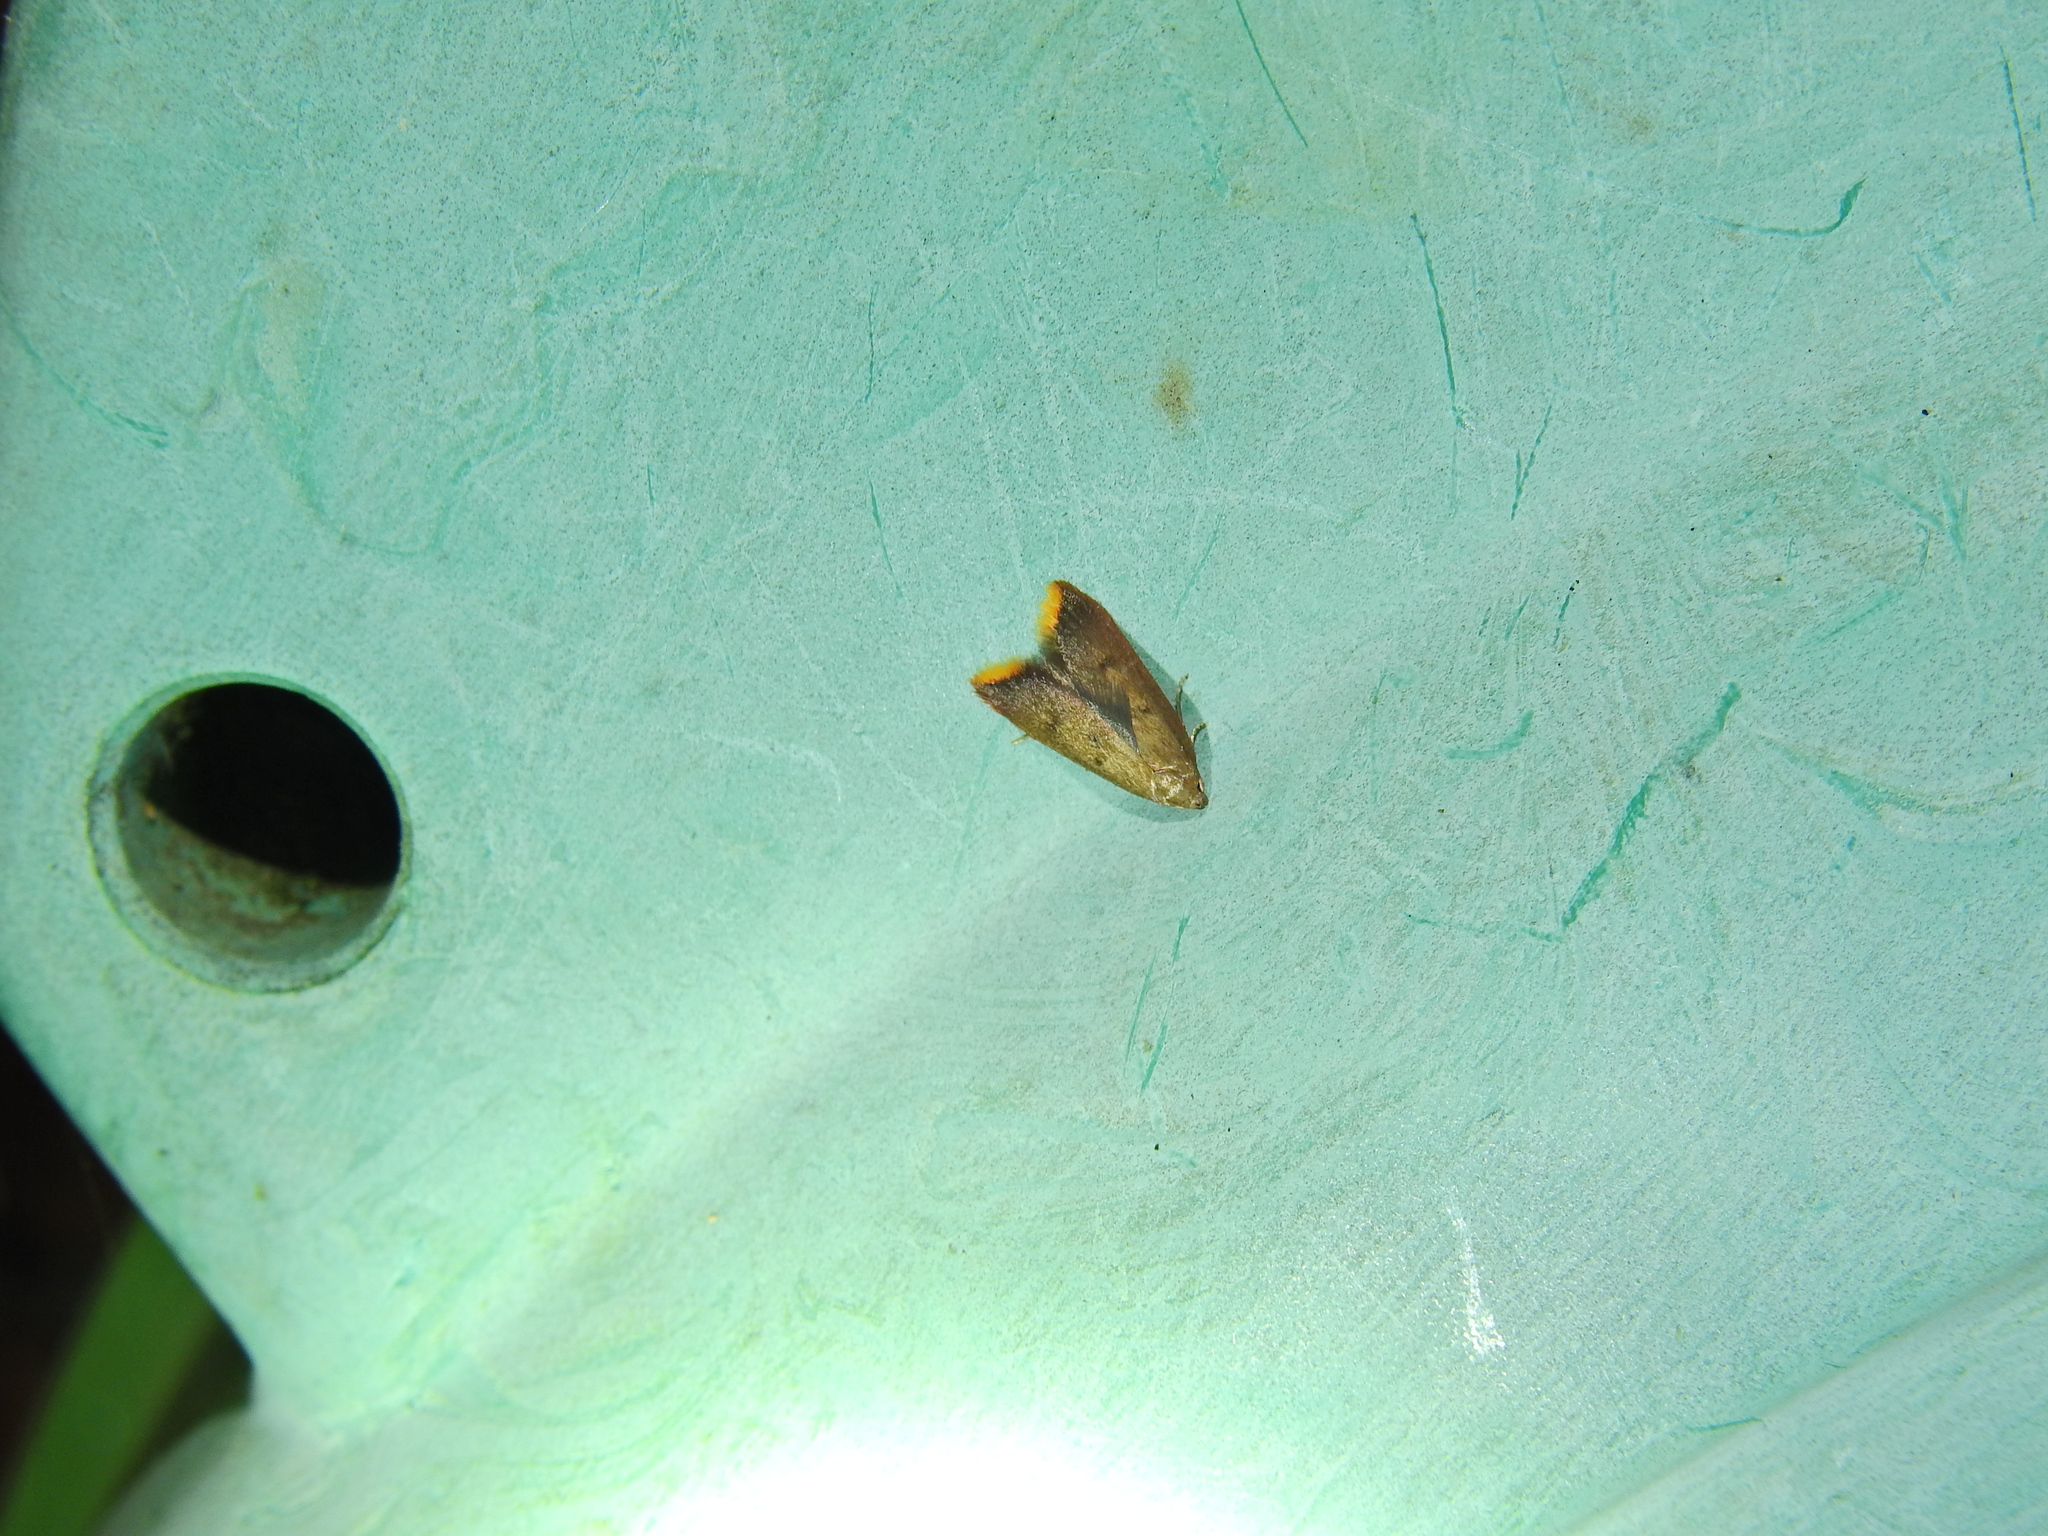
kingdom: Animalia
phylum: Arthropoda
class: Insecta
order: Lepidoptera
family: Oecophoridae
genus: Tachystola
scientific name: Tachystola acroxantha
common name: Ruddy streak
